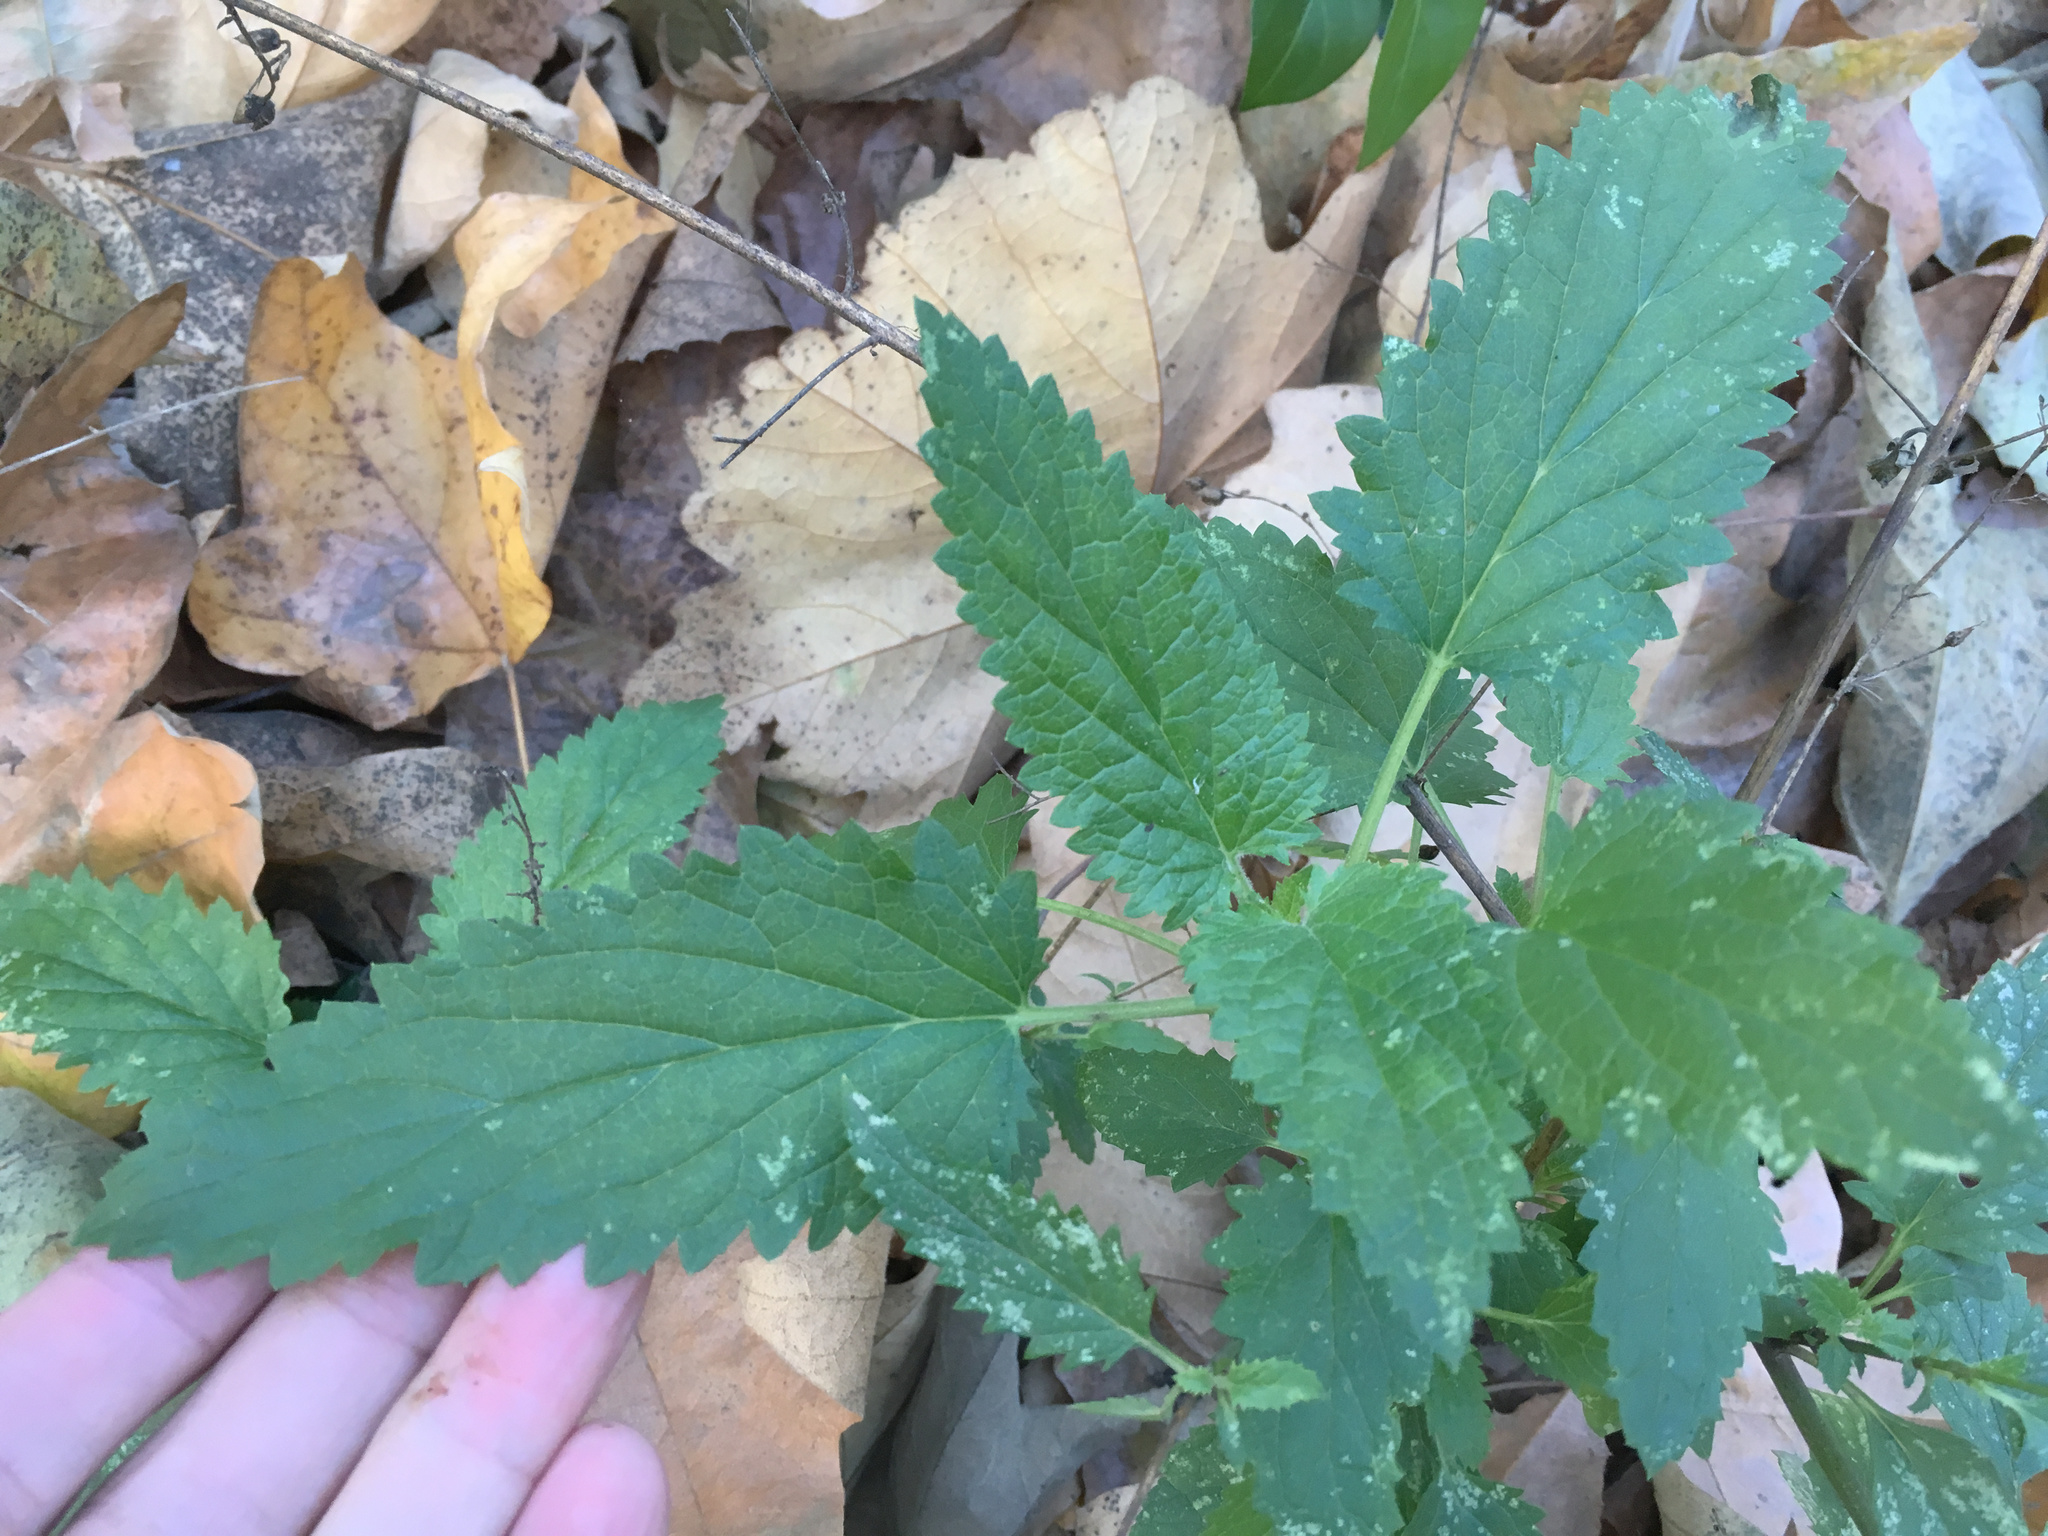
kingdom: Plantae
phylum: Tracheophyta
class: Magnoliopsida
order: Lamiales
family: Scrophulariaceae
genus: Scrophularia
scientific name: Scrophularia californica
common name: California figwort
